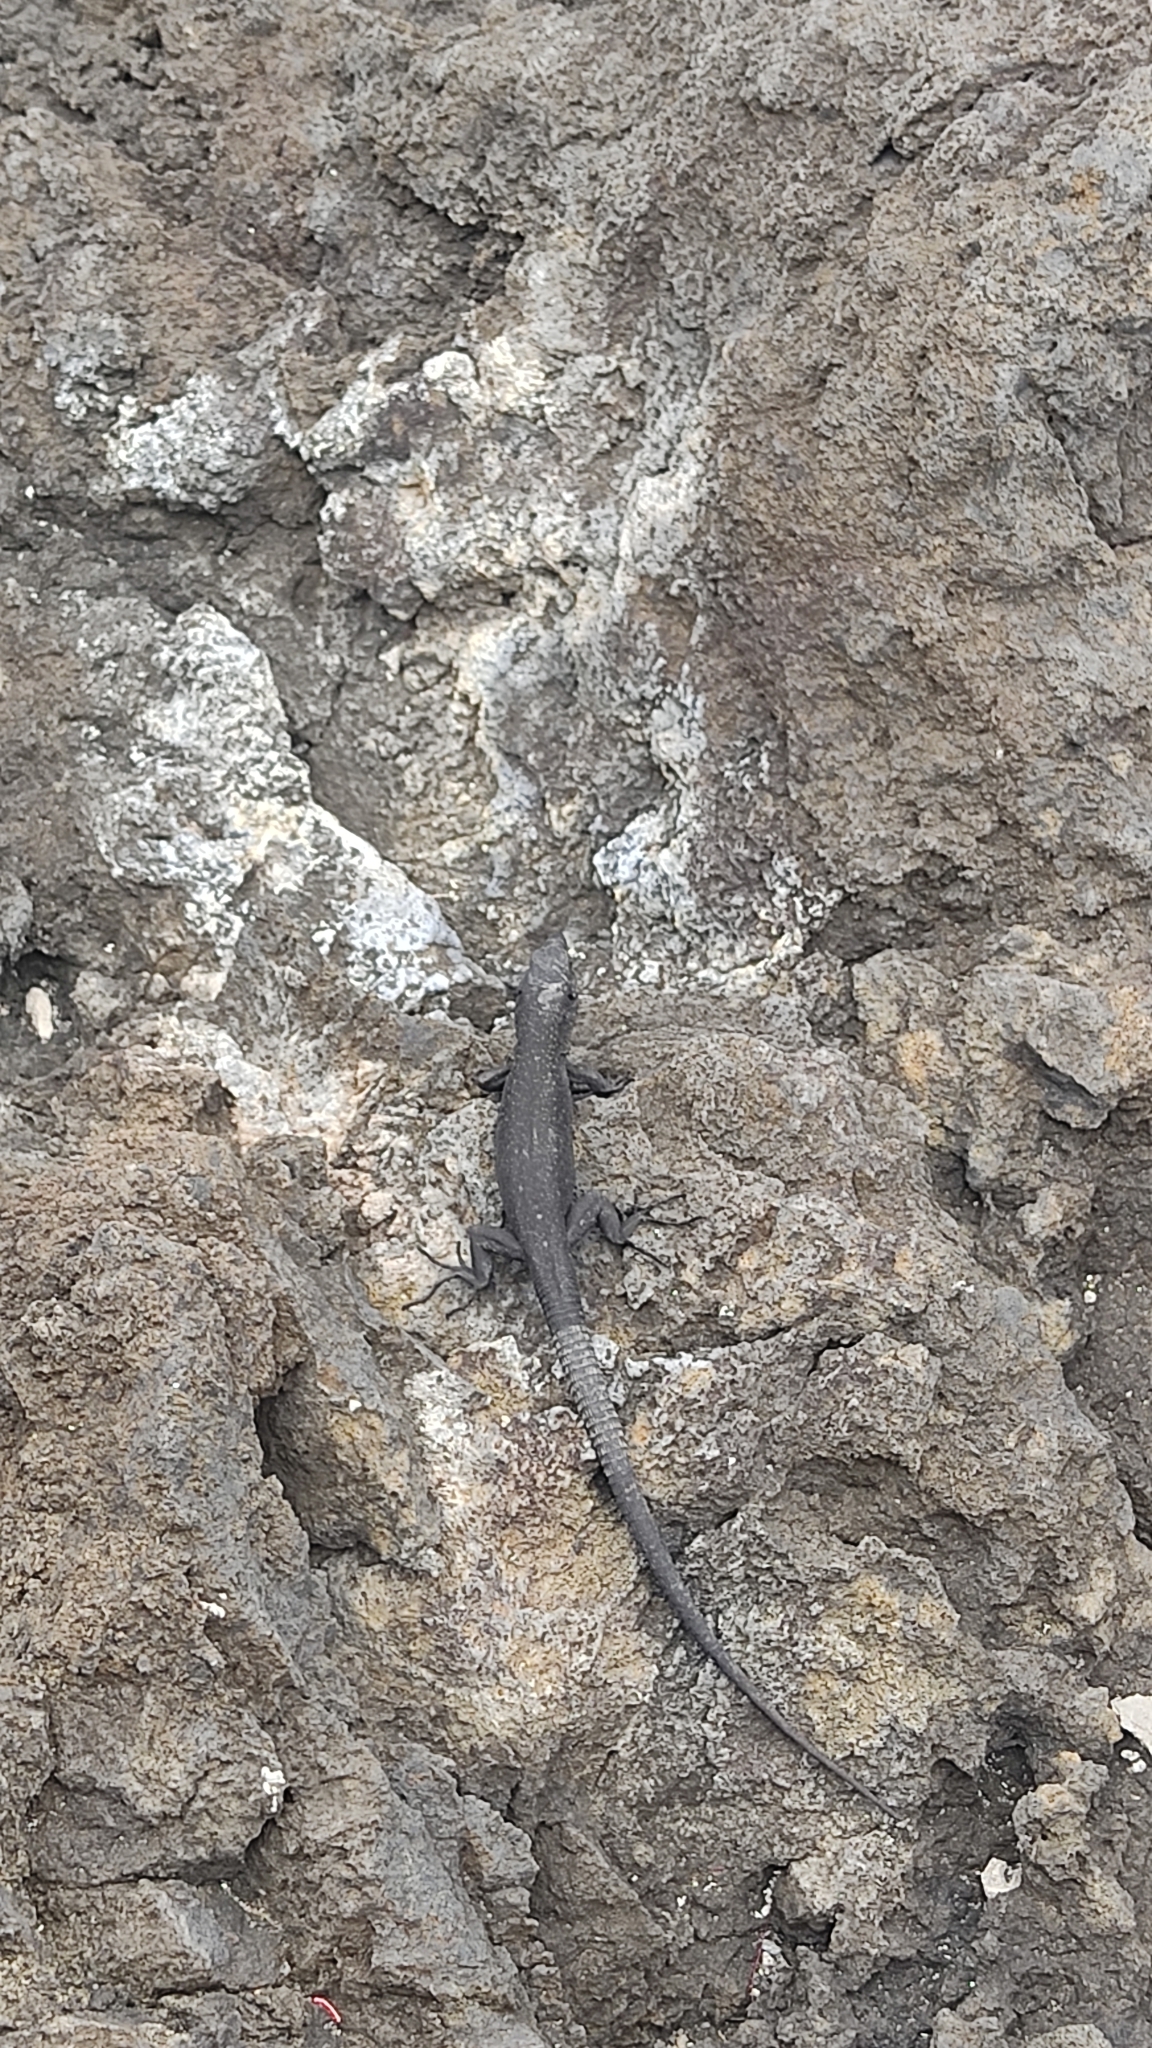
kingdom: Animalia
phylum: Chordata
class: Squamata
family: Lacertidae
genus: Teira
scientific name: Teira dugesii
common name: Madeira lizard
